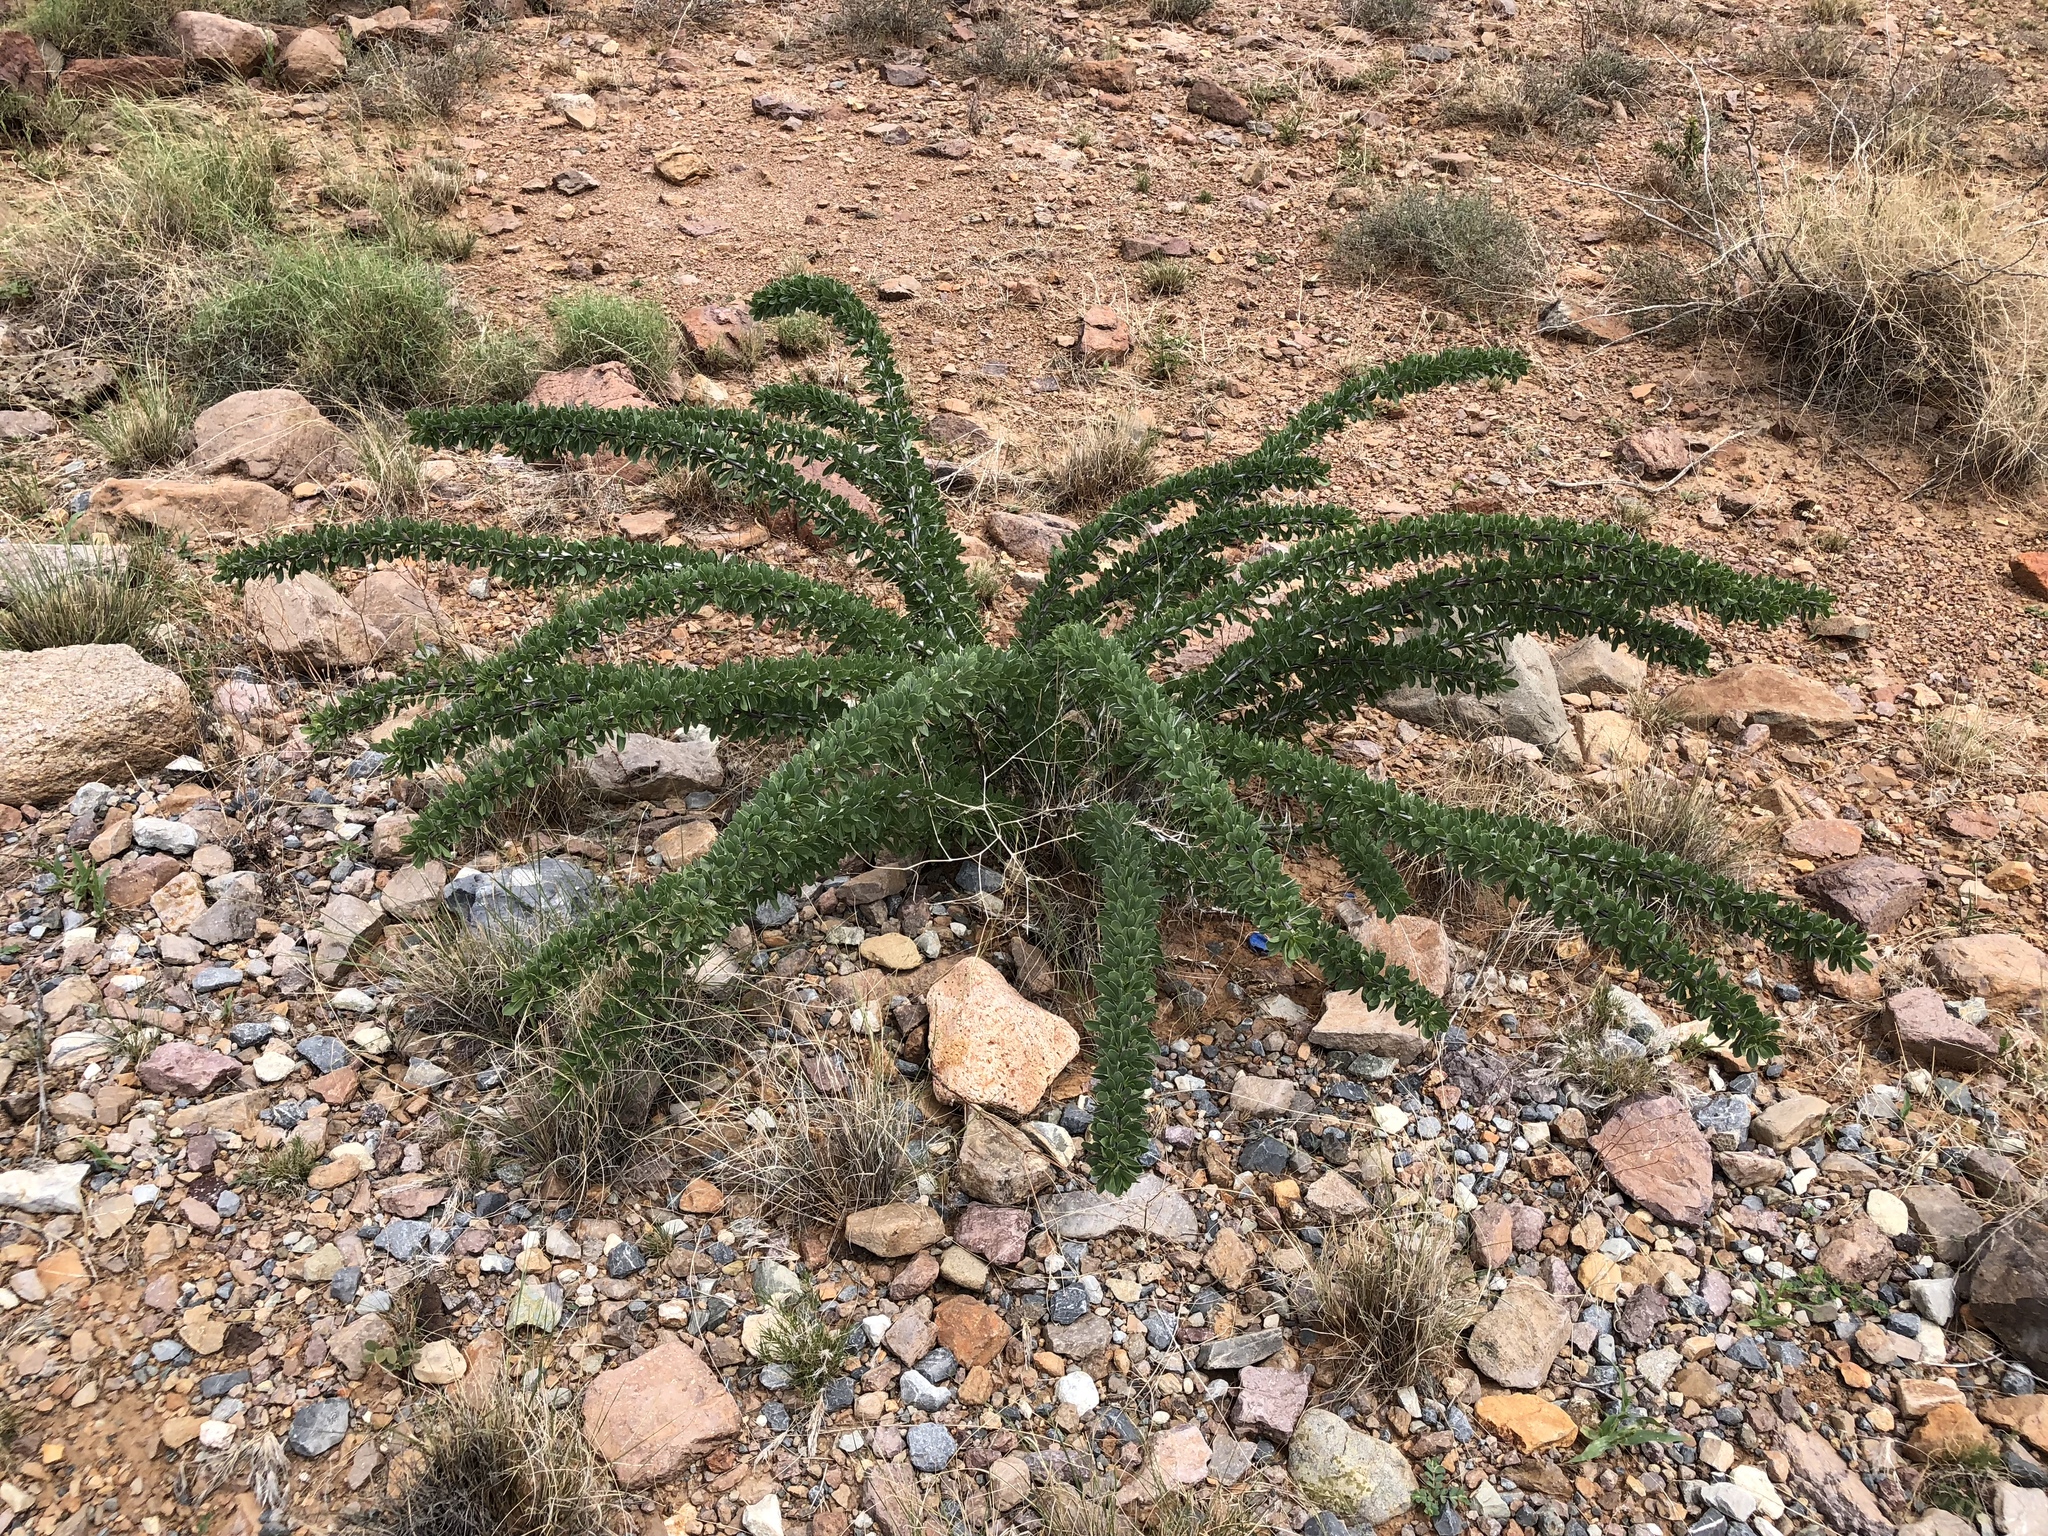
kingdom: Plantae
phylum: Tracheophyta
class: Magnoliopsida
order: Ericales
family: Fouquieriaceae
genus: Fouquieria
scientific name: Fouquieria splendens
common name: Vine-cactus
